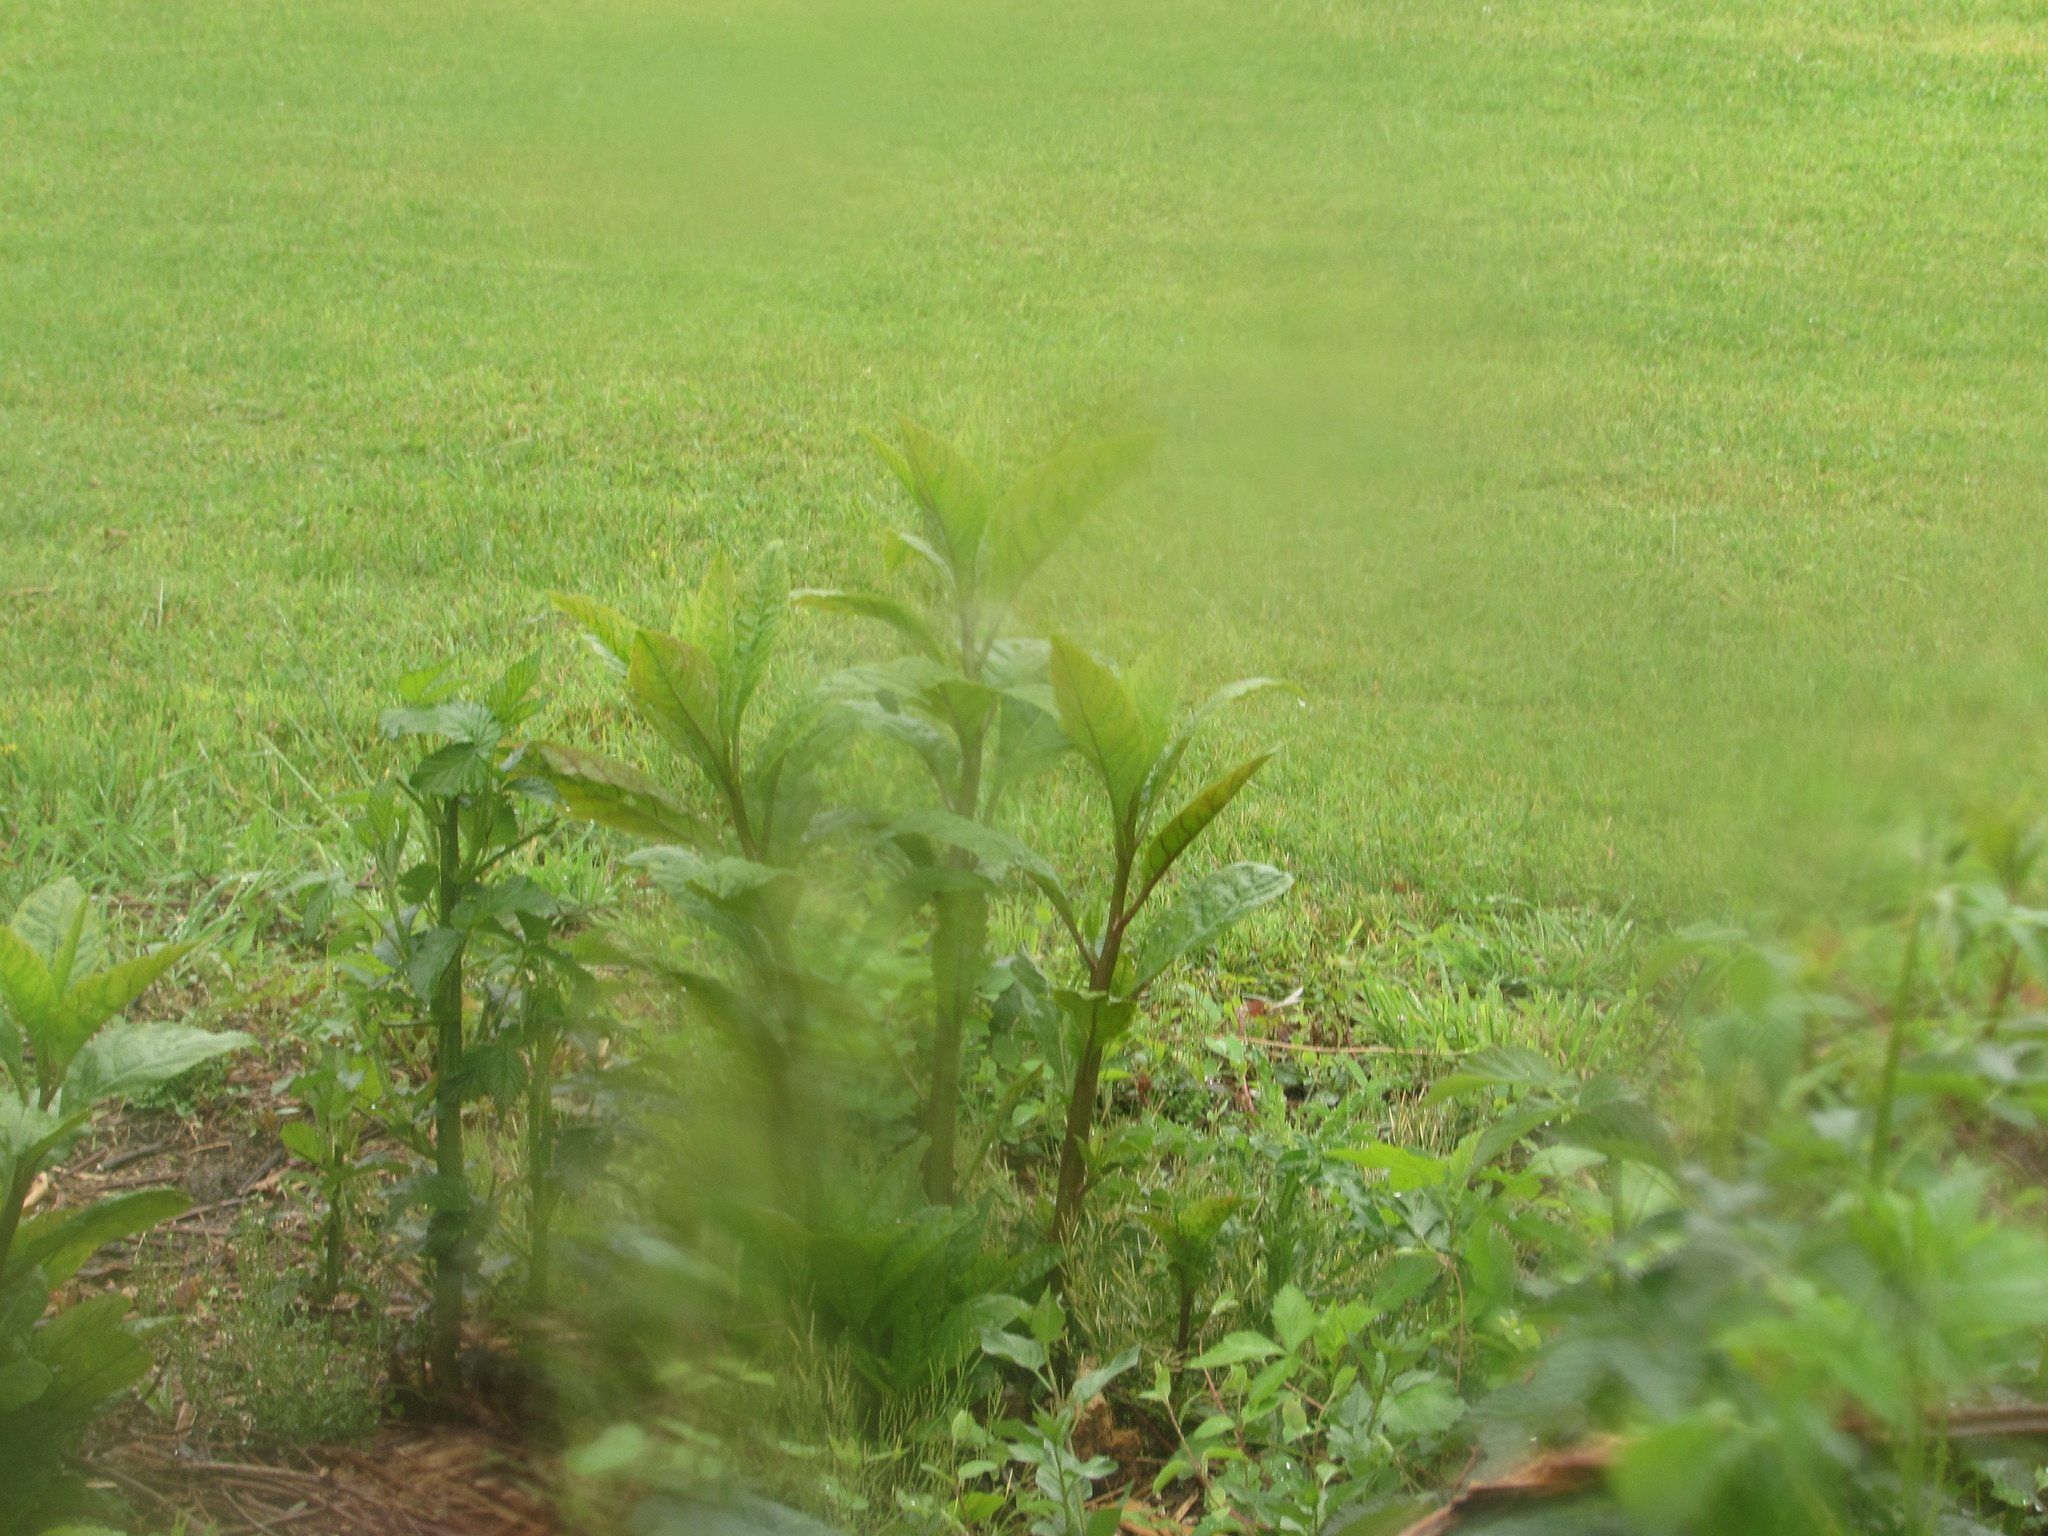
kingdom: Plantae
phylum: Tracheophyta
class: Magnoliopsida
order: Caryophyllales
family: Phytolaccaceae
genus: Phytolacca
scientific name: Phytolacca americana
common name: American pokeweed
